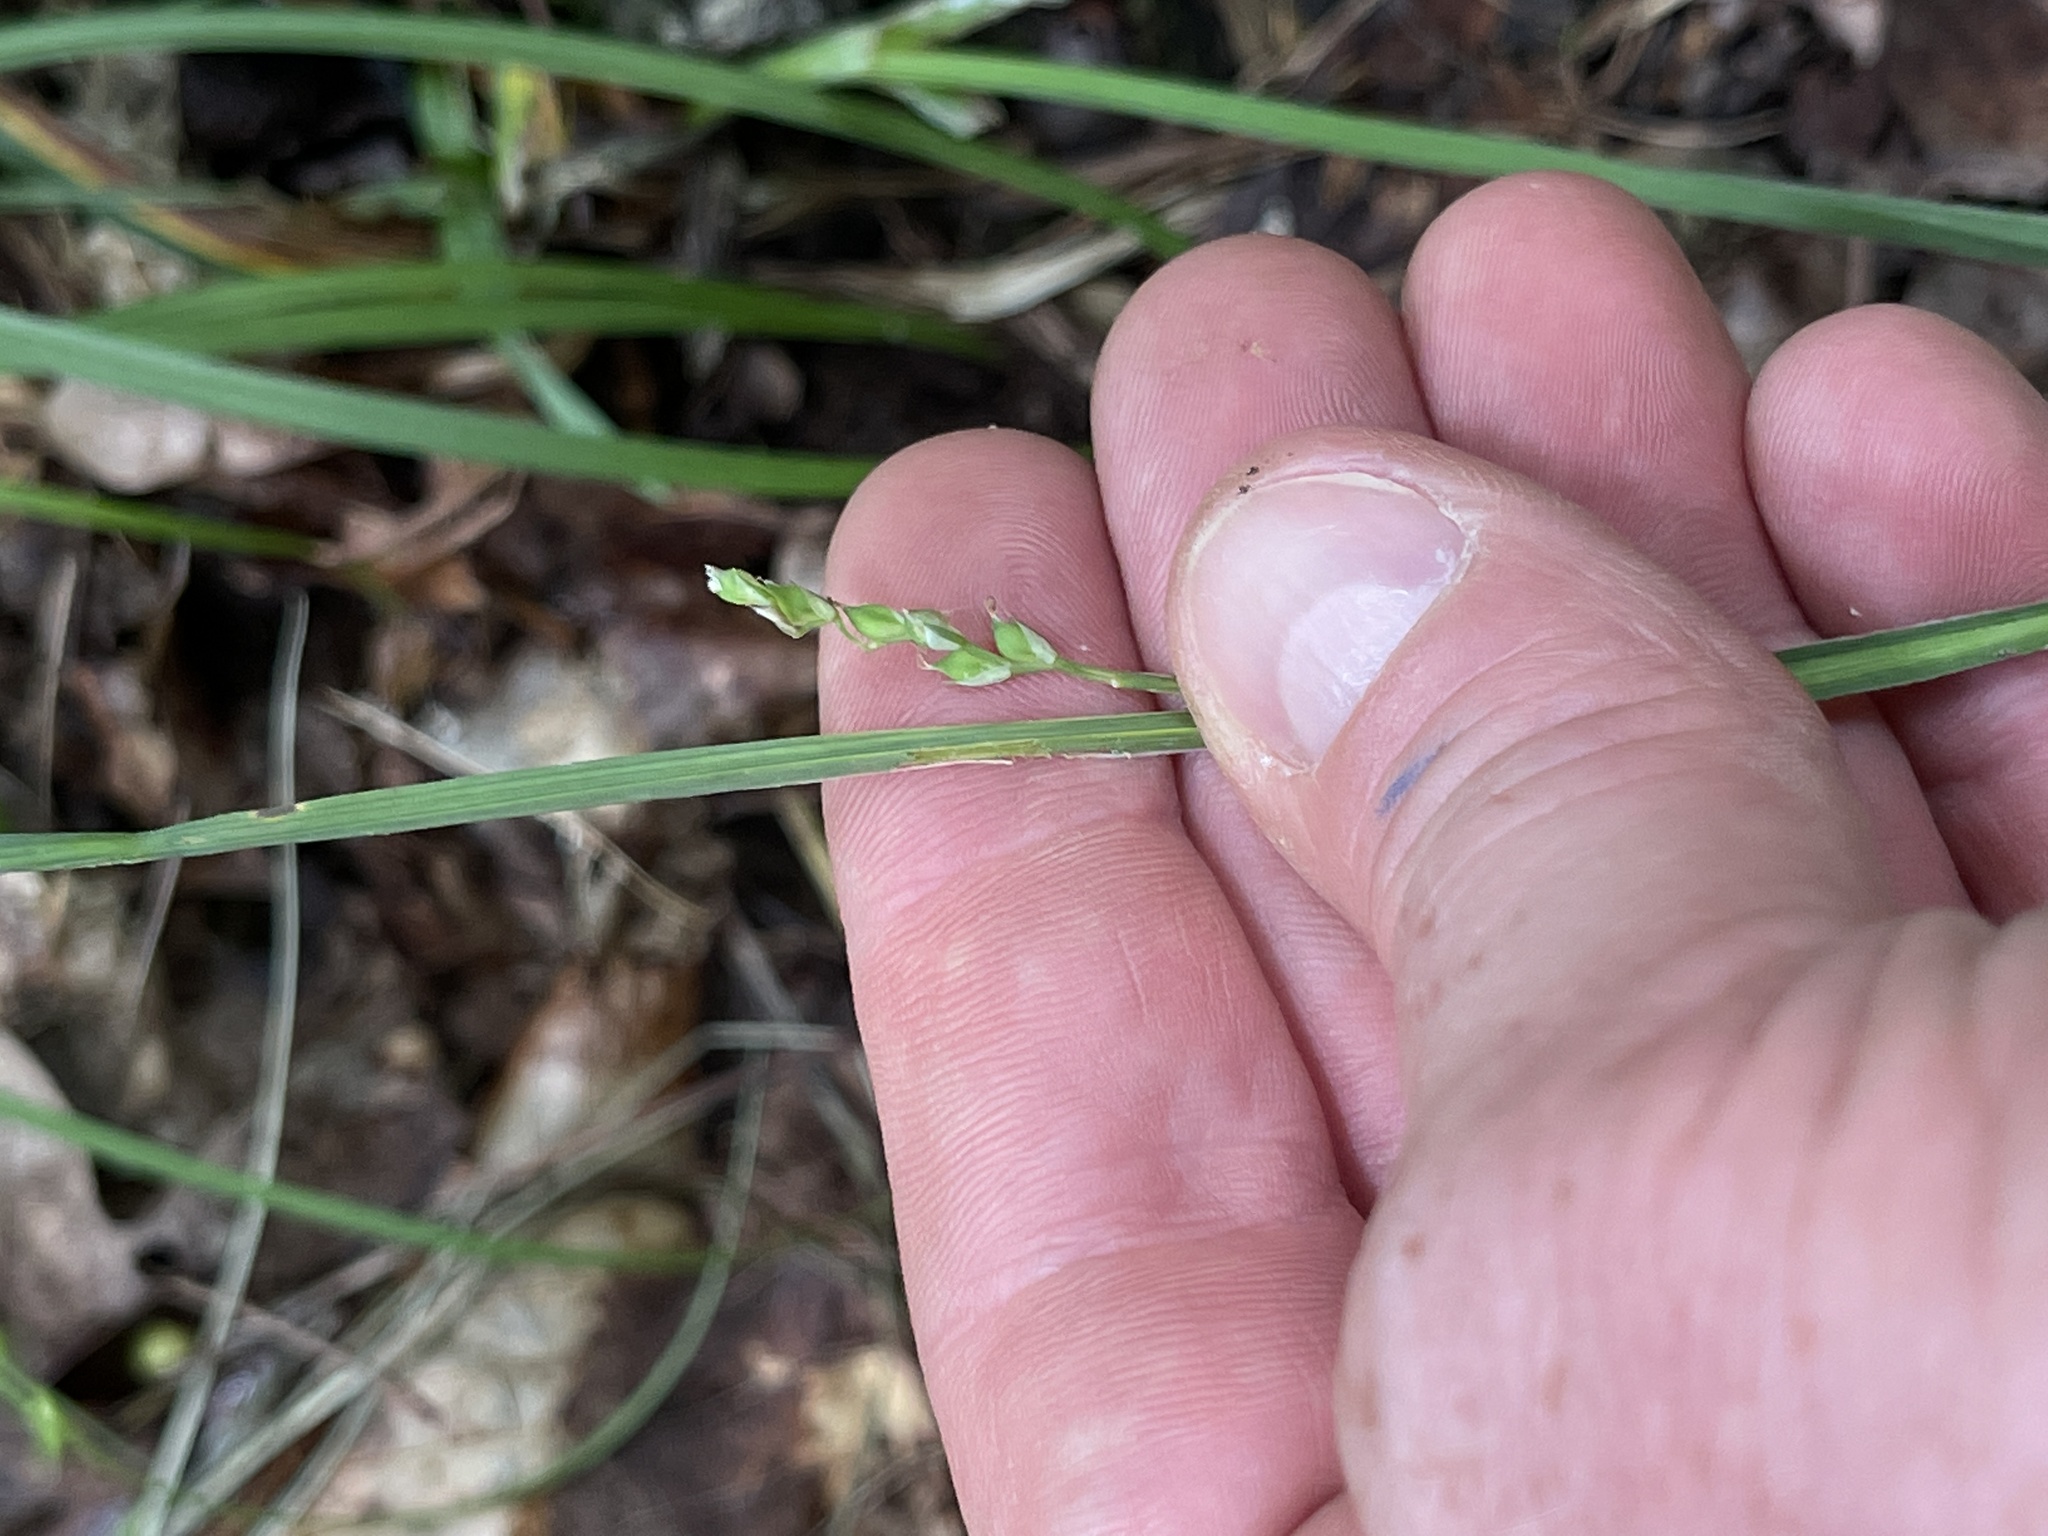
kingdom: Plantae
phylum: Tracheophyta
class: Liliopsida
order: Poales
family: Cyperaceae
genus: Carex
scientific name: Carex leptonervia
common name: Few-nerved wood sedge
